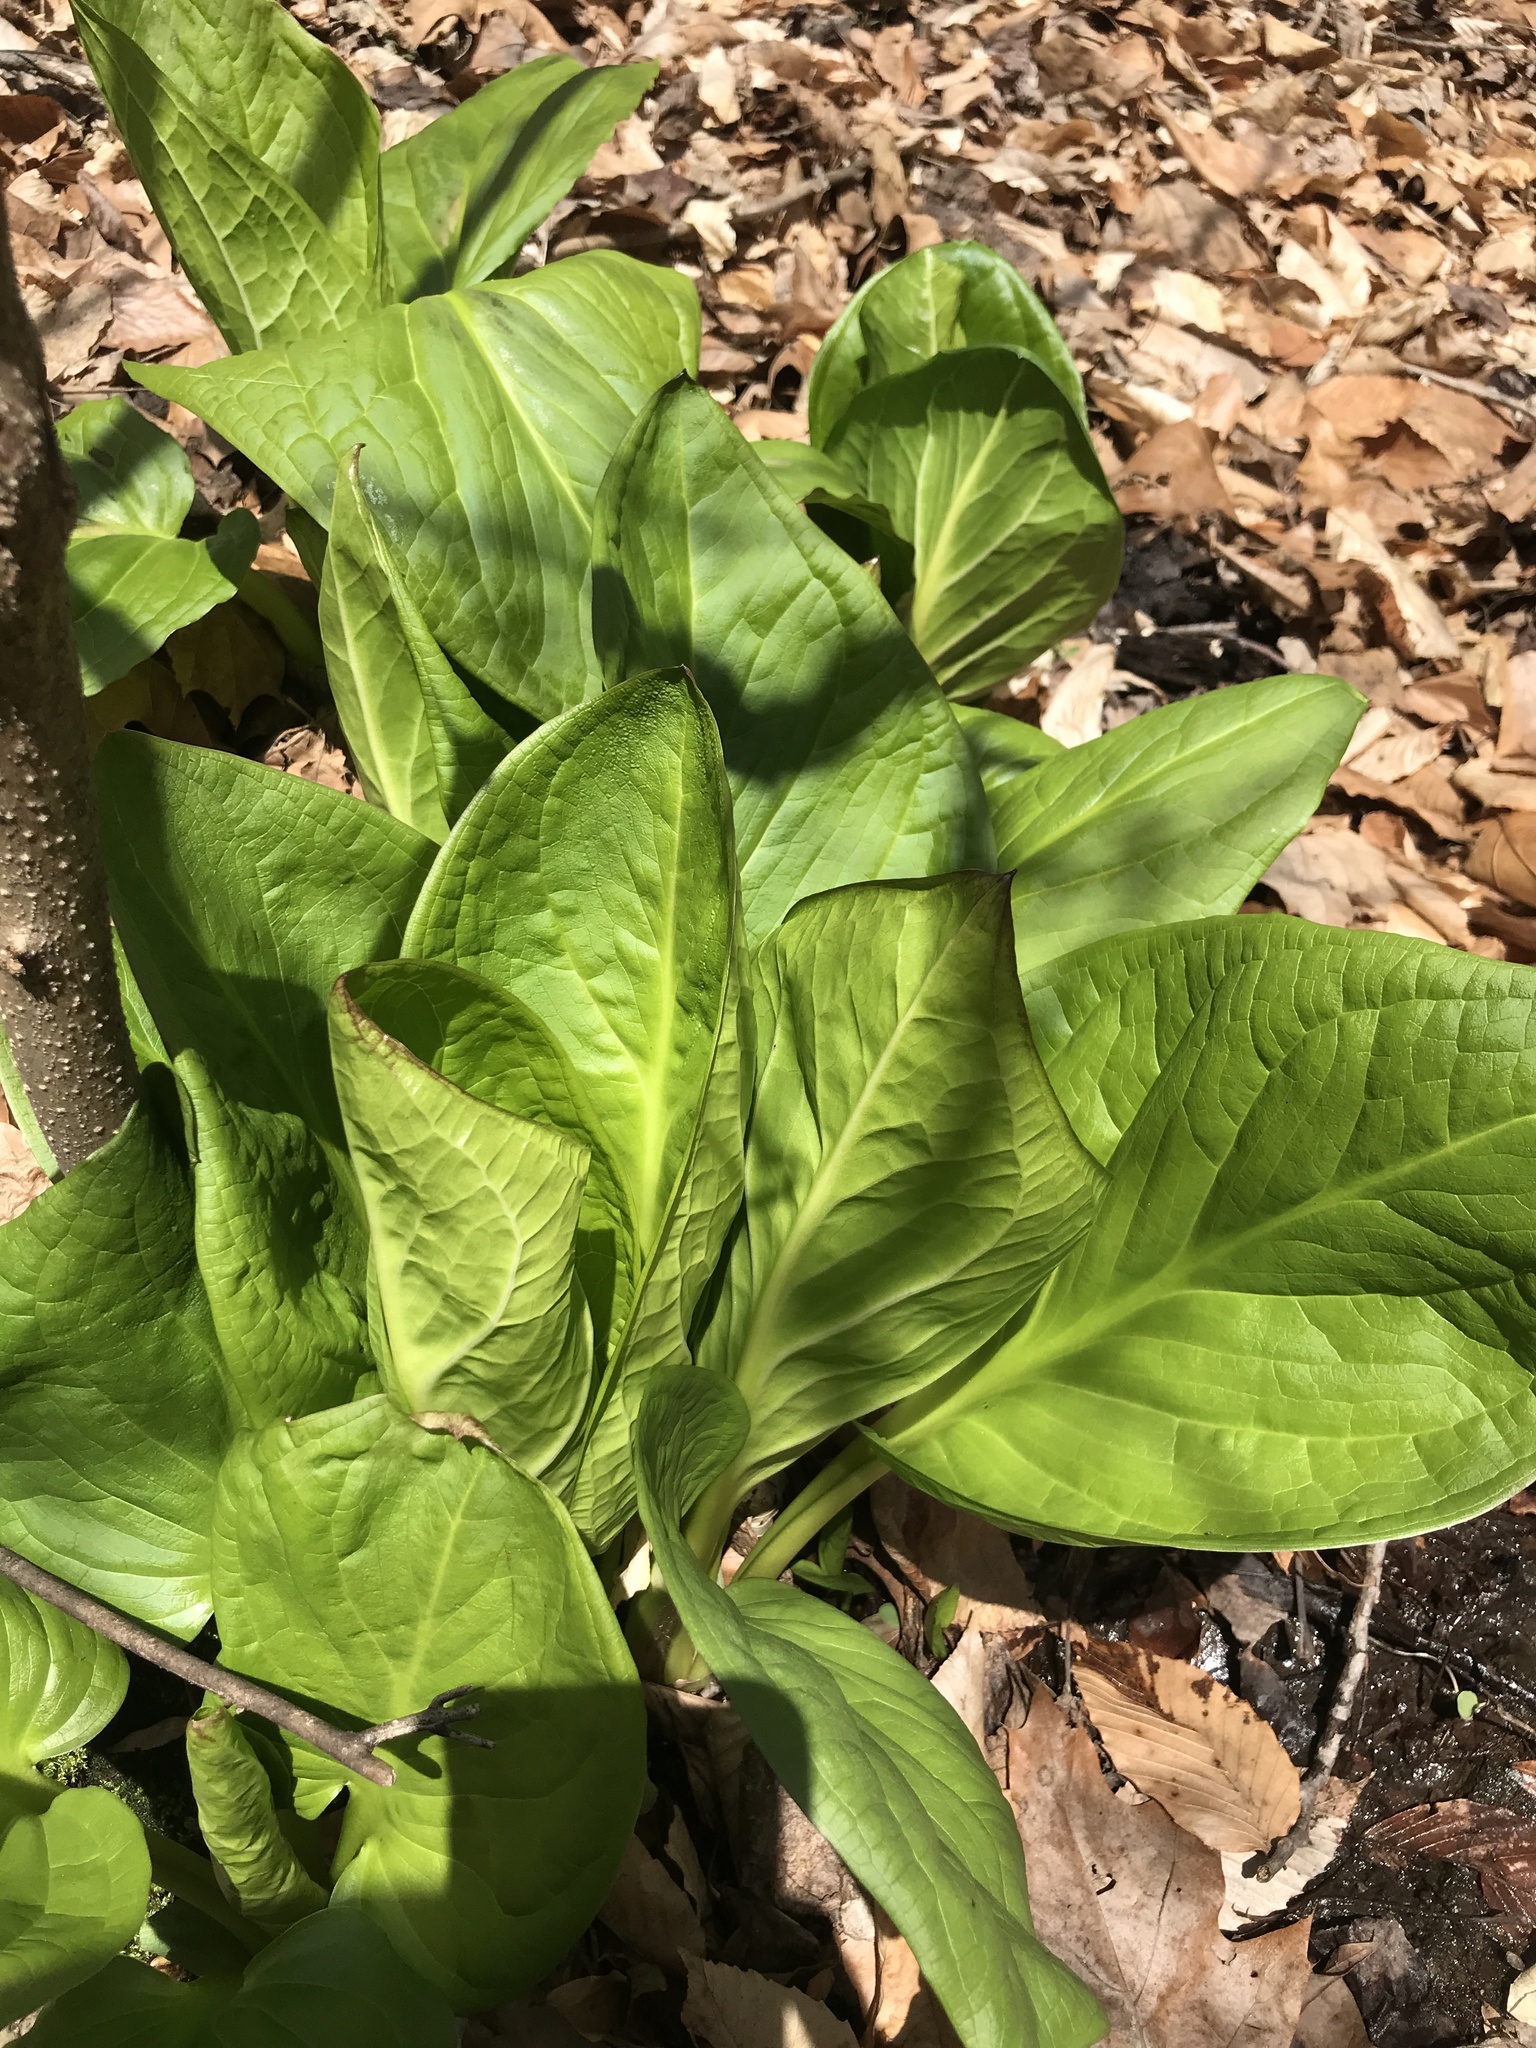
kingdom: Plantae
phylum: Tracheophyta
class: Liliopsida
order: Alismatales
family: Araceae
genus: Symplocarpus
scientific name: Symplocarpus foetidus
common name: Eastern skunk cabbage
